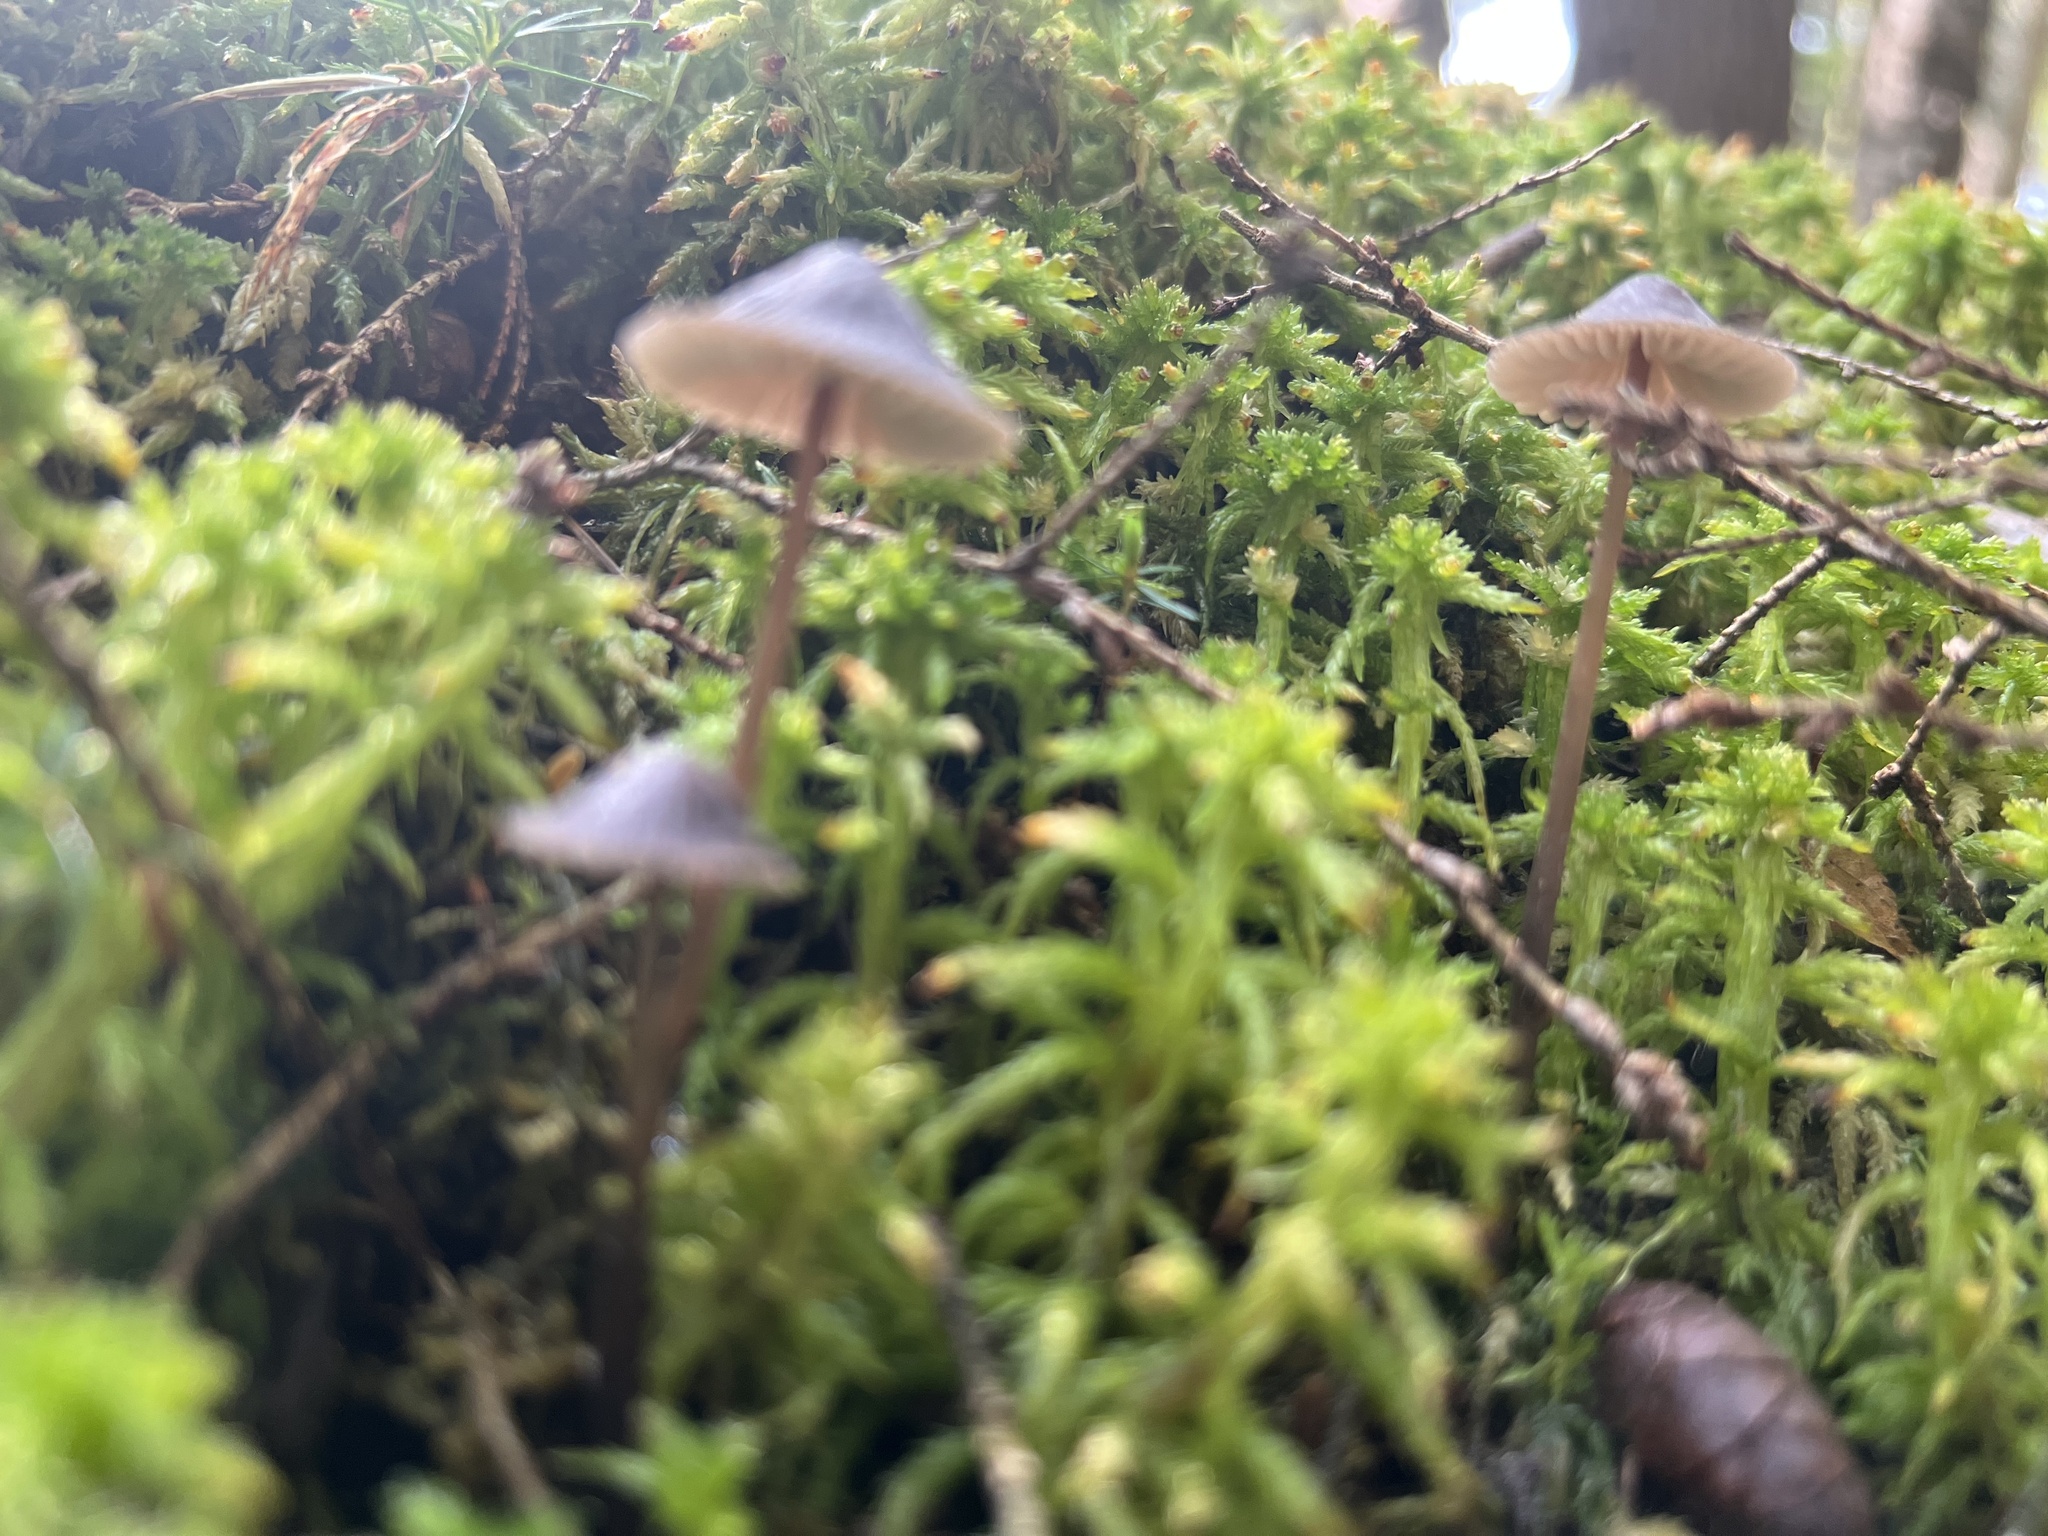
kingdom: Fungi
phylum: Basidiomycota
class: Agaricomycetes
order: Agaricales
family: Mycenaceae
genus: Mycena
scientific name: Mycena leptocephala
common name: Nitrous bonnet
